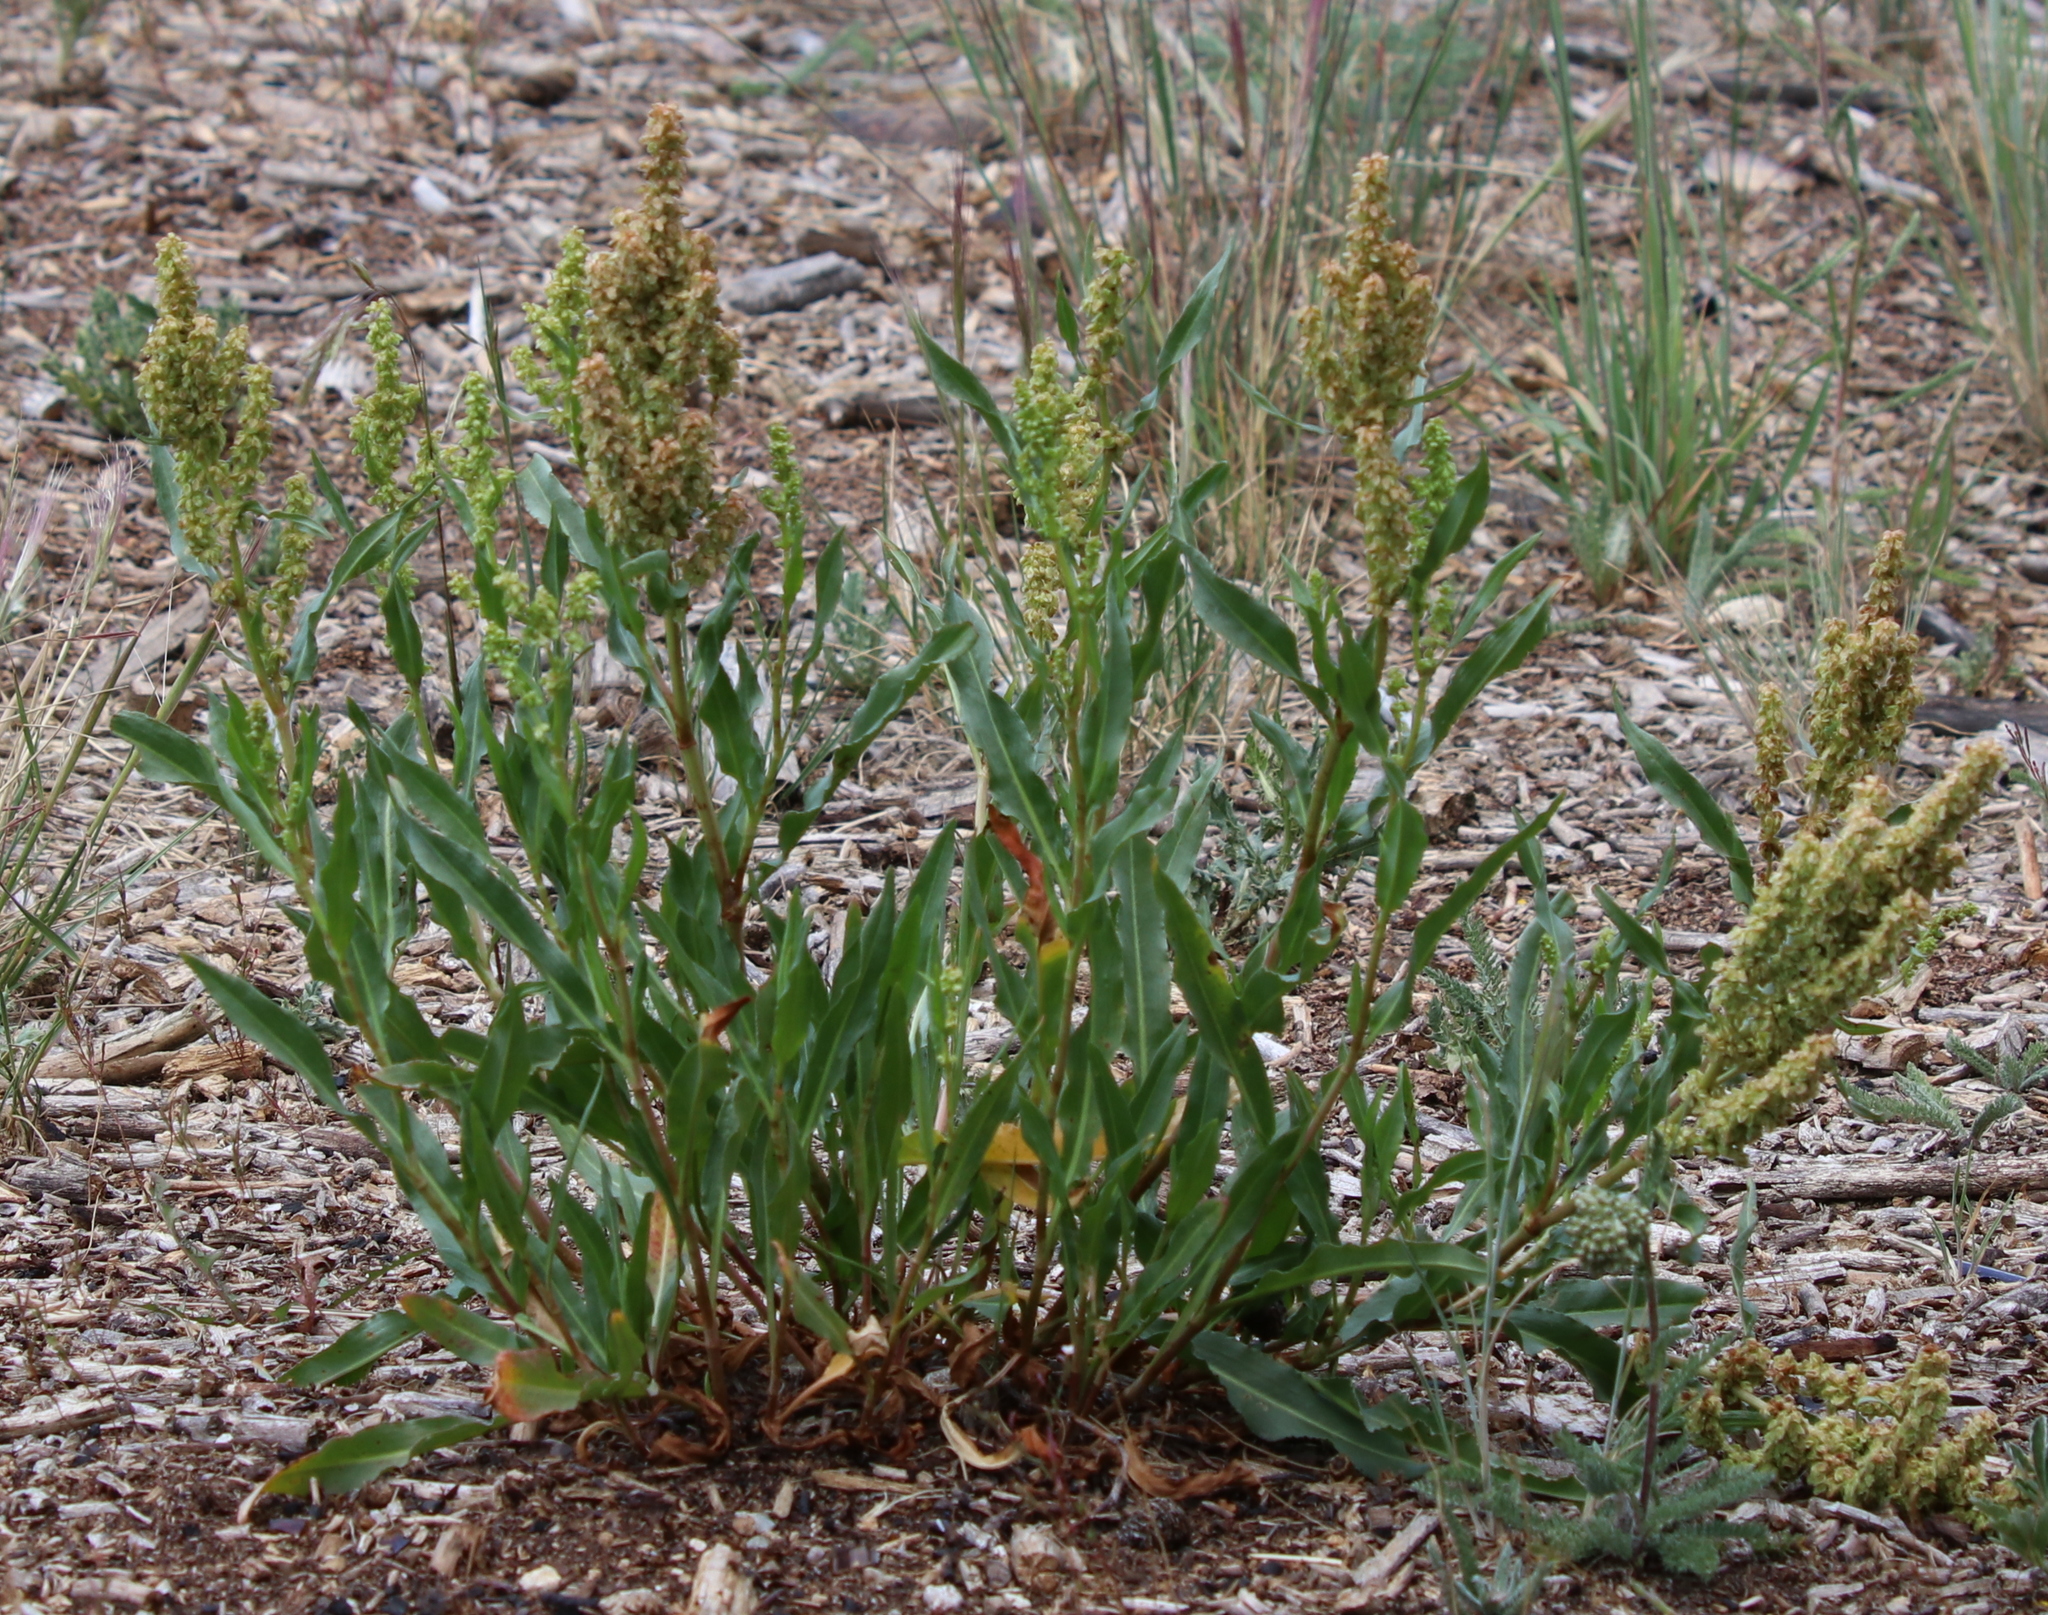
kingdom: Plantae
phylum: Tracheophyta
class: Magnoliopsida
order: Caryophyllales
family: Polygonaceae
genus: Rumex
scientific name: Rumex triangulivalvis
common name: Triangular-valve dock
